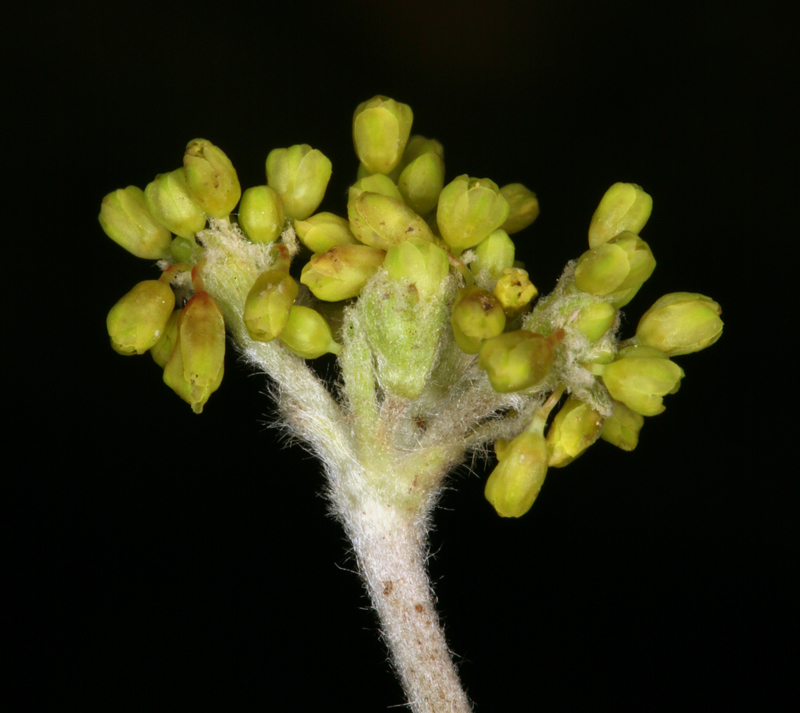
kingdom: Plantae
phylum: Tracheophyta
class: Magnoliopsida
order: Caryophyllales
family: Polygonaceae
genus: Eriogonum
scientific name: Eriogonum incanum
